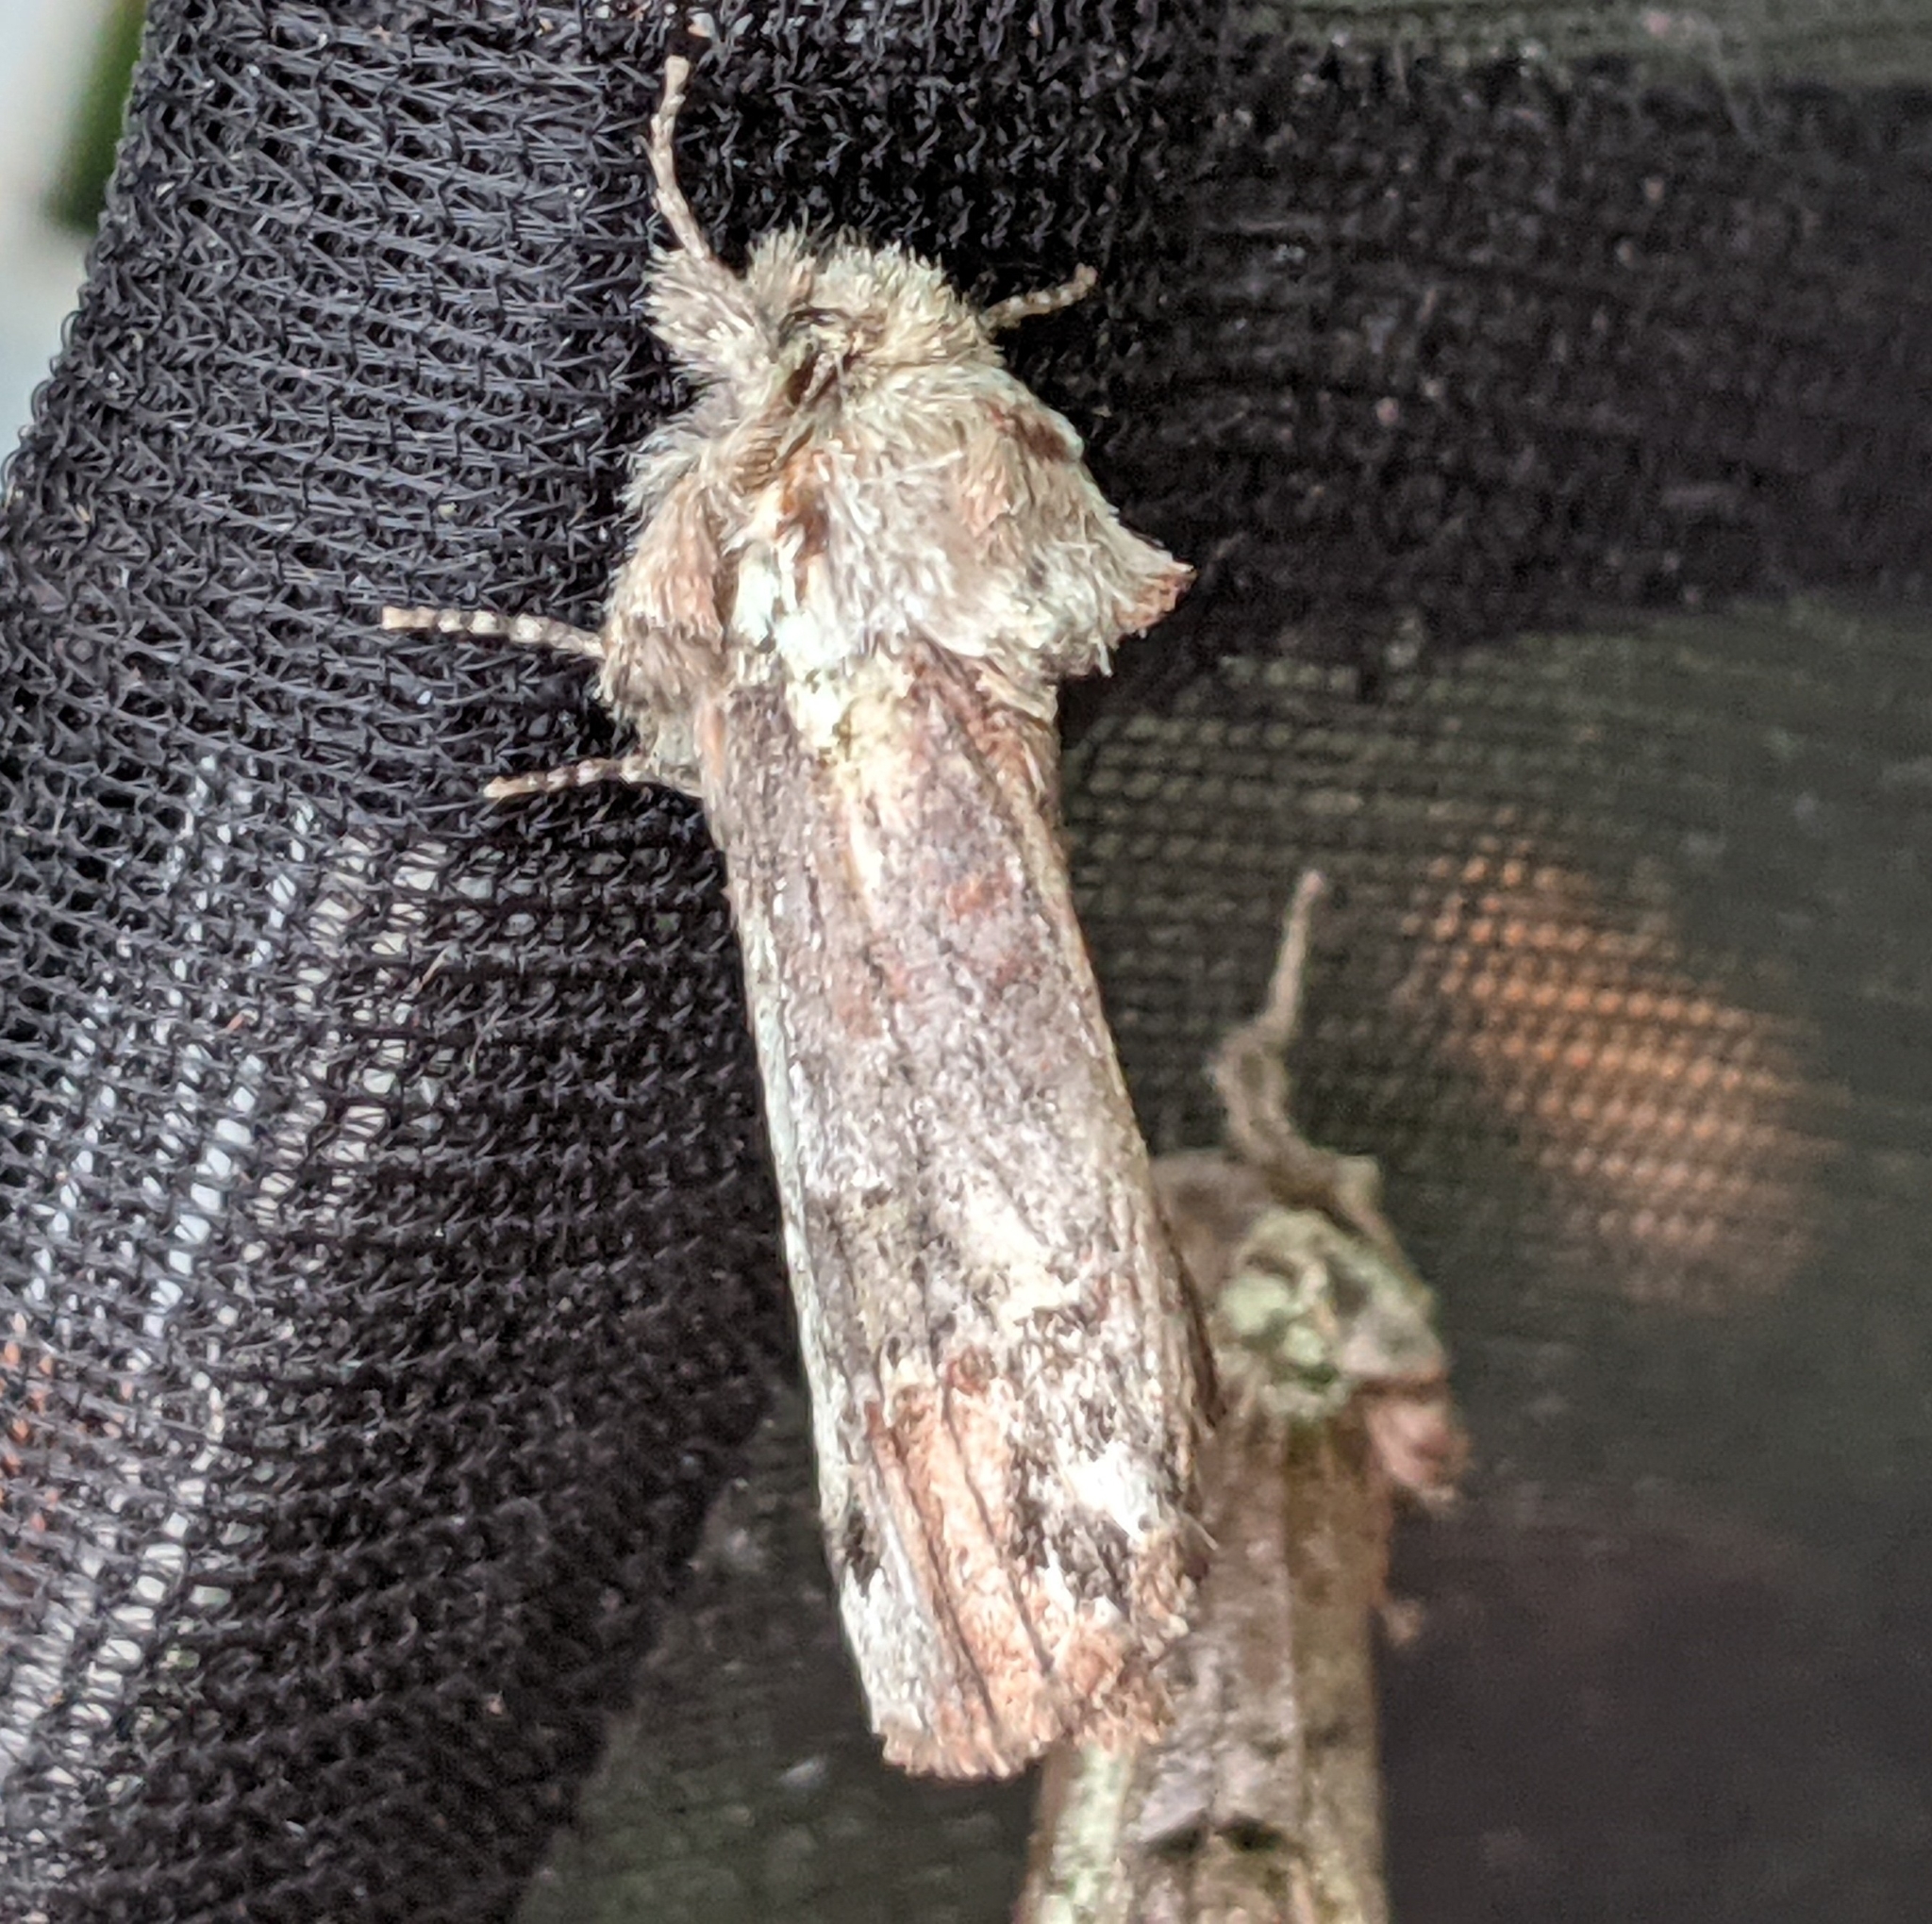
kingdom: Animalia
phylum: Arthropoda
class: Insecta
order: Lepidoptera
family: Notodontidae
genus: Schizura
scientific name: Schizura
